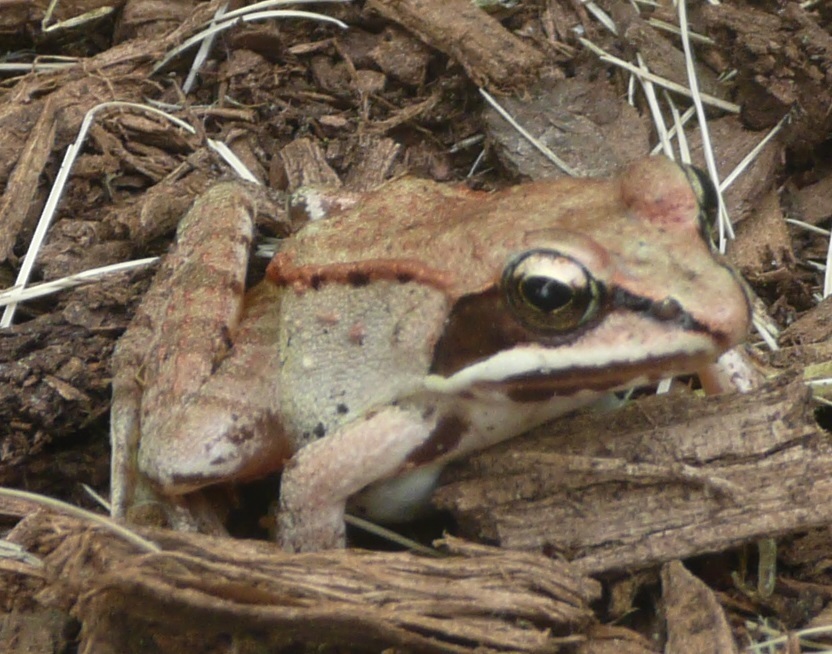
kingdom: Animalia
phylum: Chordata
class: Amphibia
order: Anura
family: Ranidae
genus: Lithobates
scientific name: Lithobates sylvaticus
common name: Wood frog
